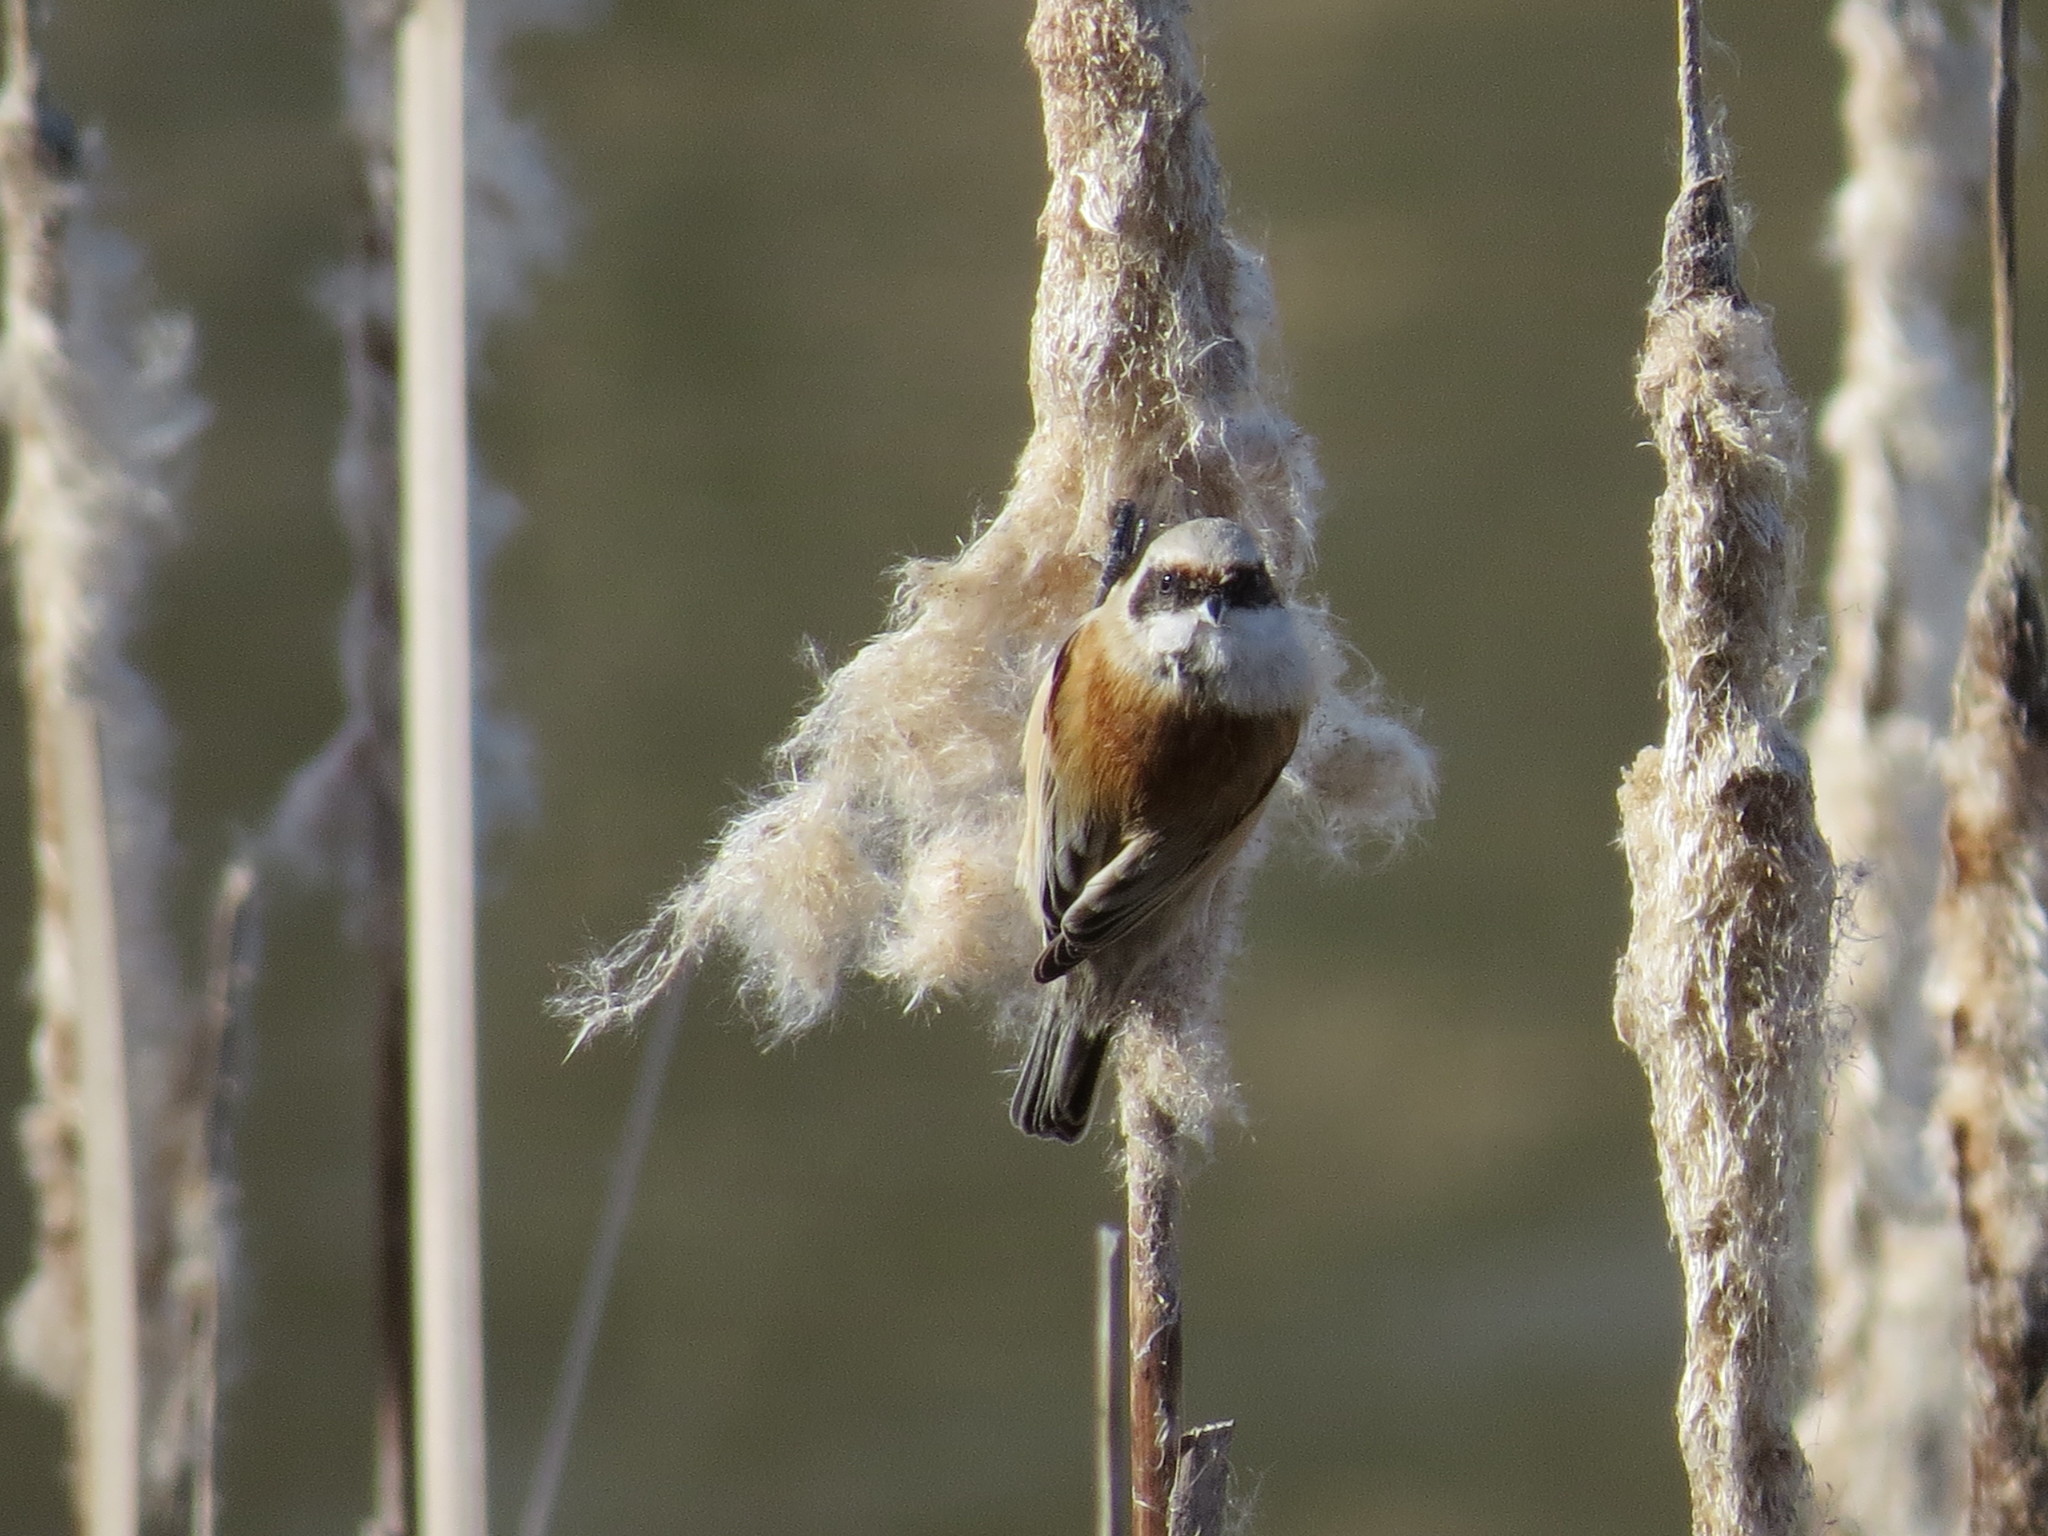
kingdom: Animalia
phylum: Chordata
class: Aves
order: Passeriformes
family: Remizidae
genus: Remiz
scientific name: Remiz pendulinus
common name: Eurasian penduline tit
